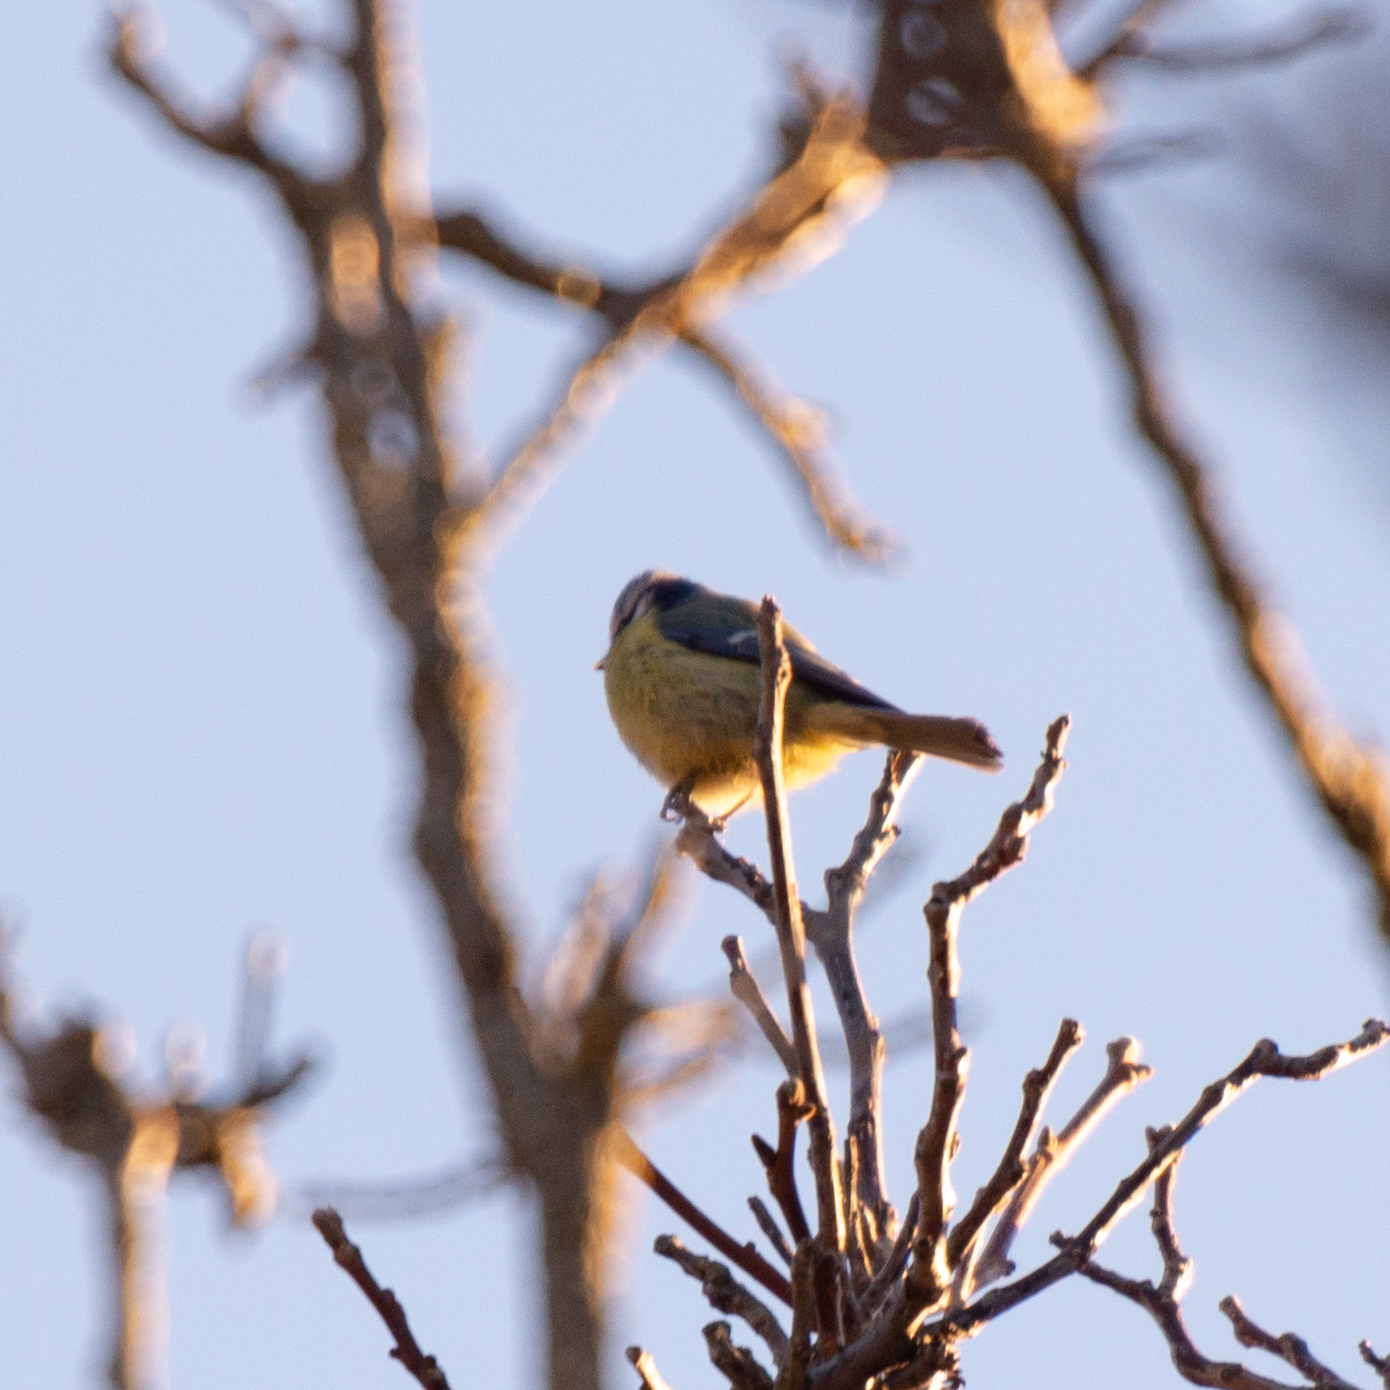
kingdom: Animalia
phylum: Chordata
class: Aves
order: Passeriformes
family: Paridae
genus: Cyanistes
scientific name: Cyanistes caeruleus
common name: Eurasian blue tit
